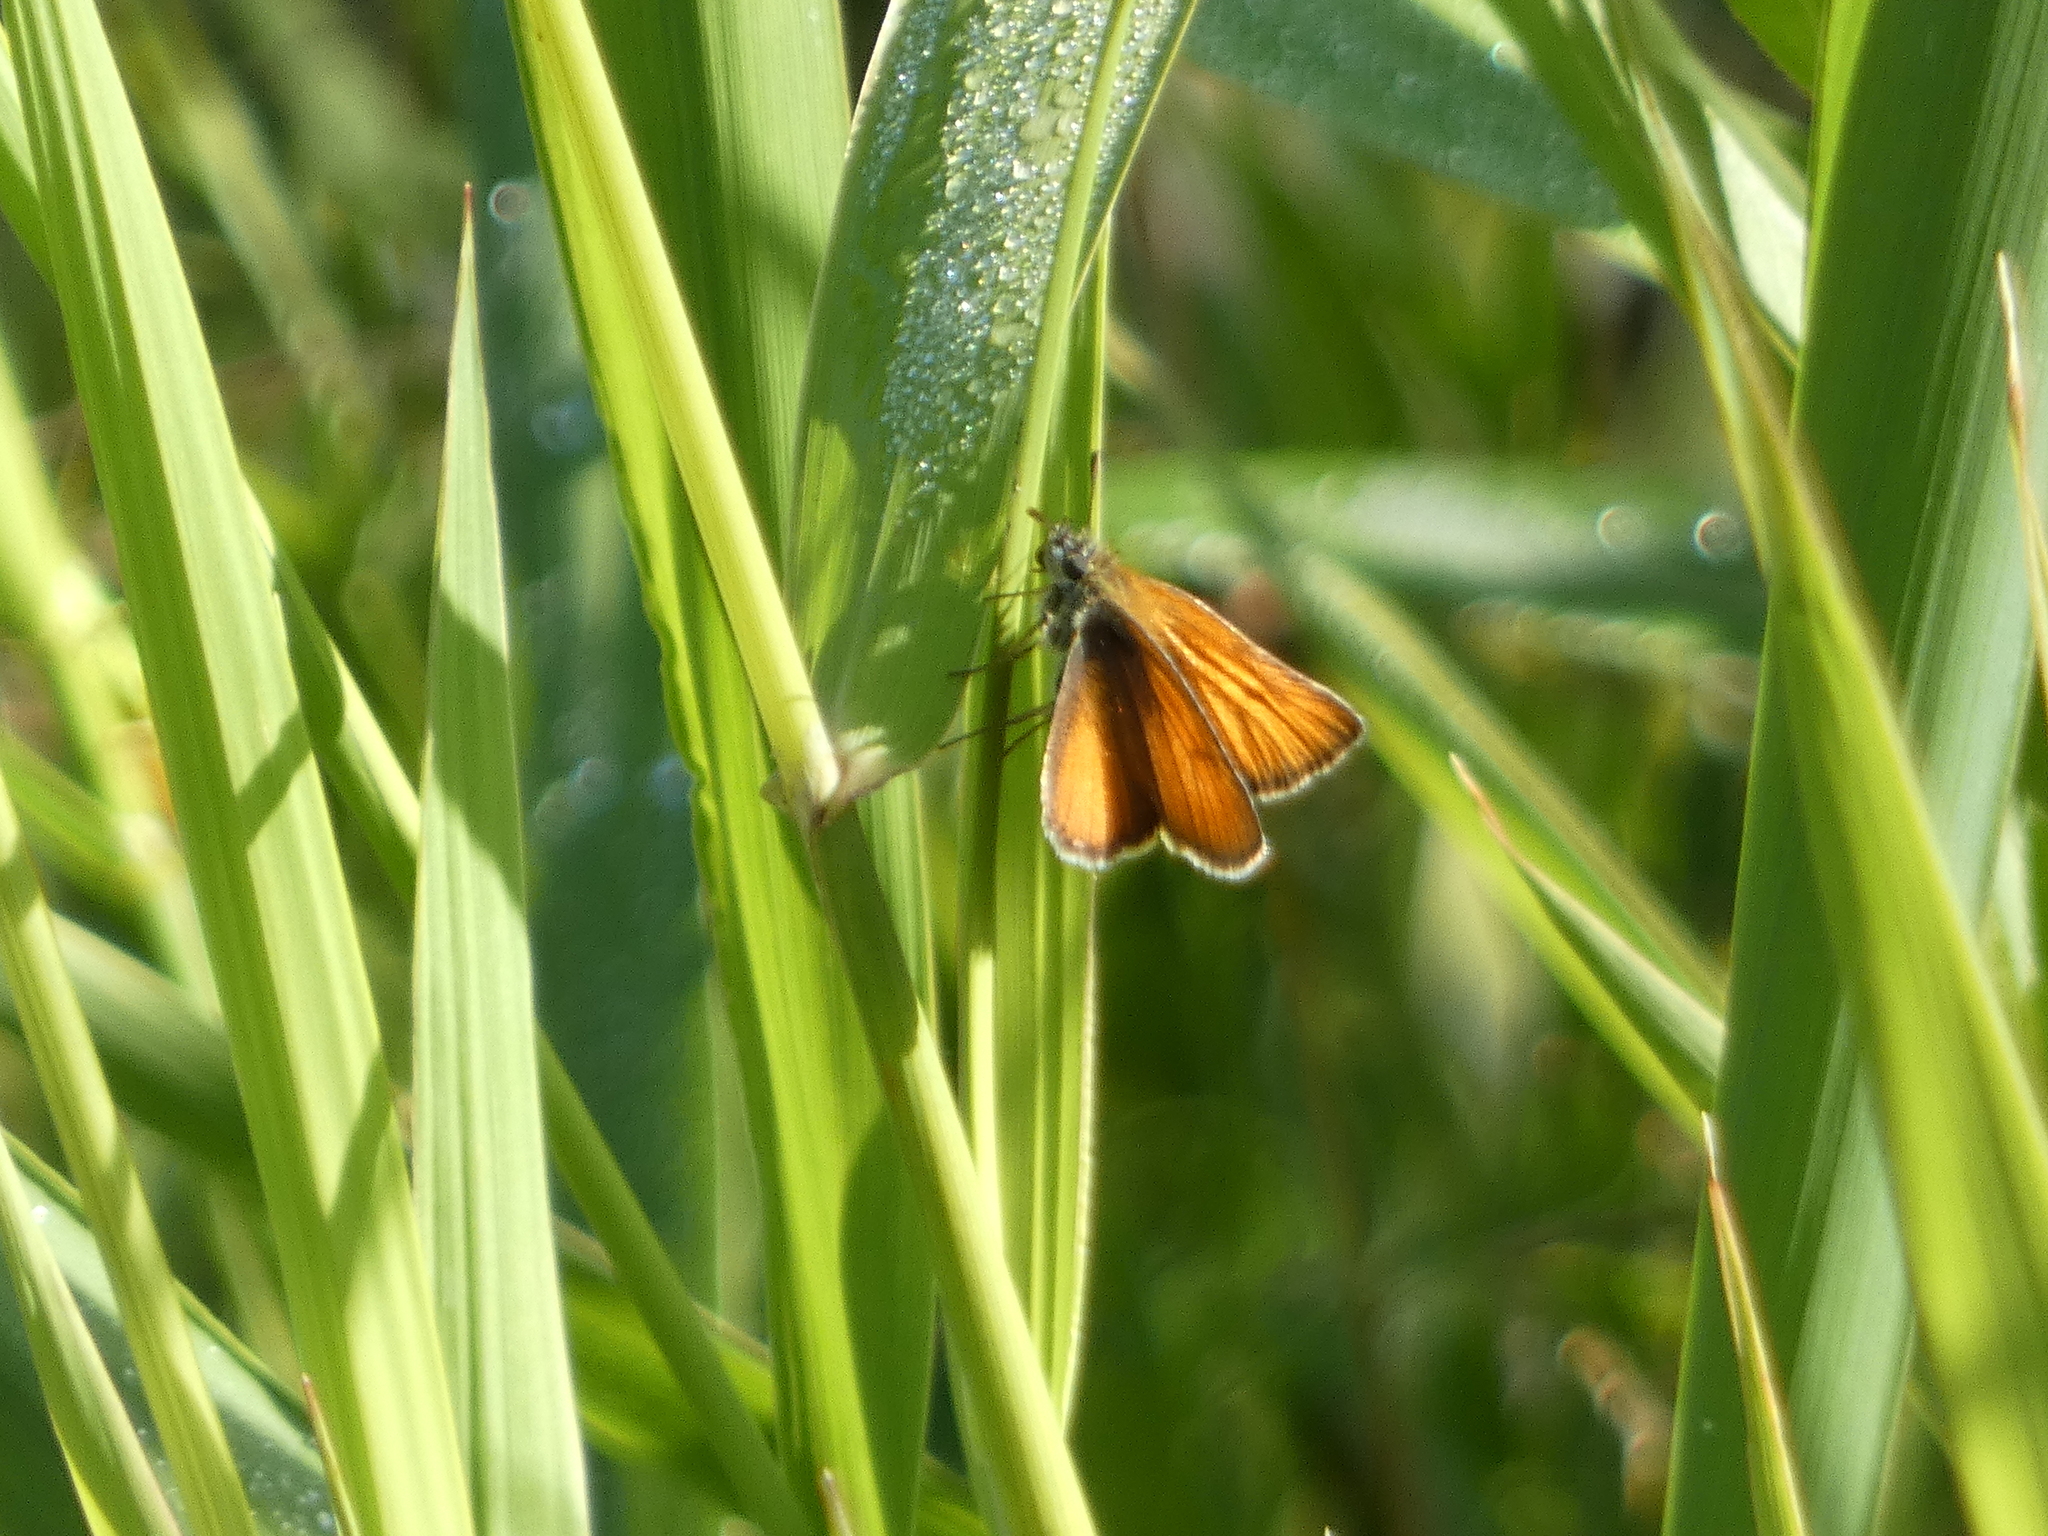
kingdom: Animalia
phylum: Arthropoda
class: Insecta
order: Lepidoptera
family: Hesperiidae
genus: Thymelicus
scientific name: Thymelicus lineola
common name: Essex skipper
